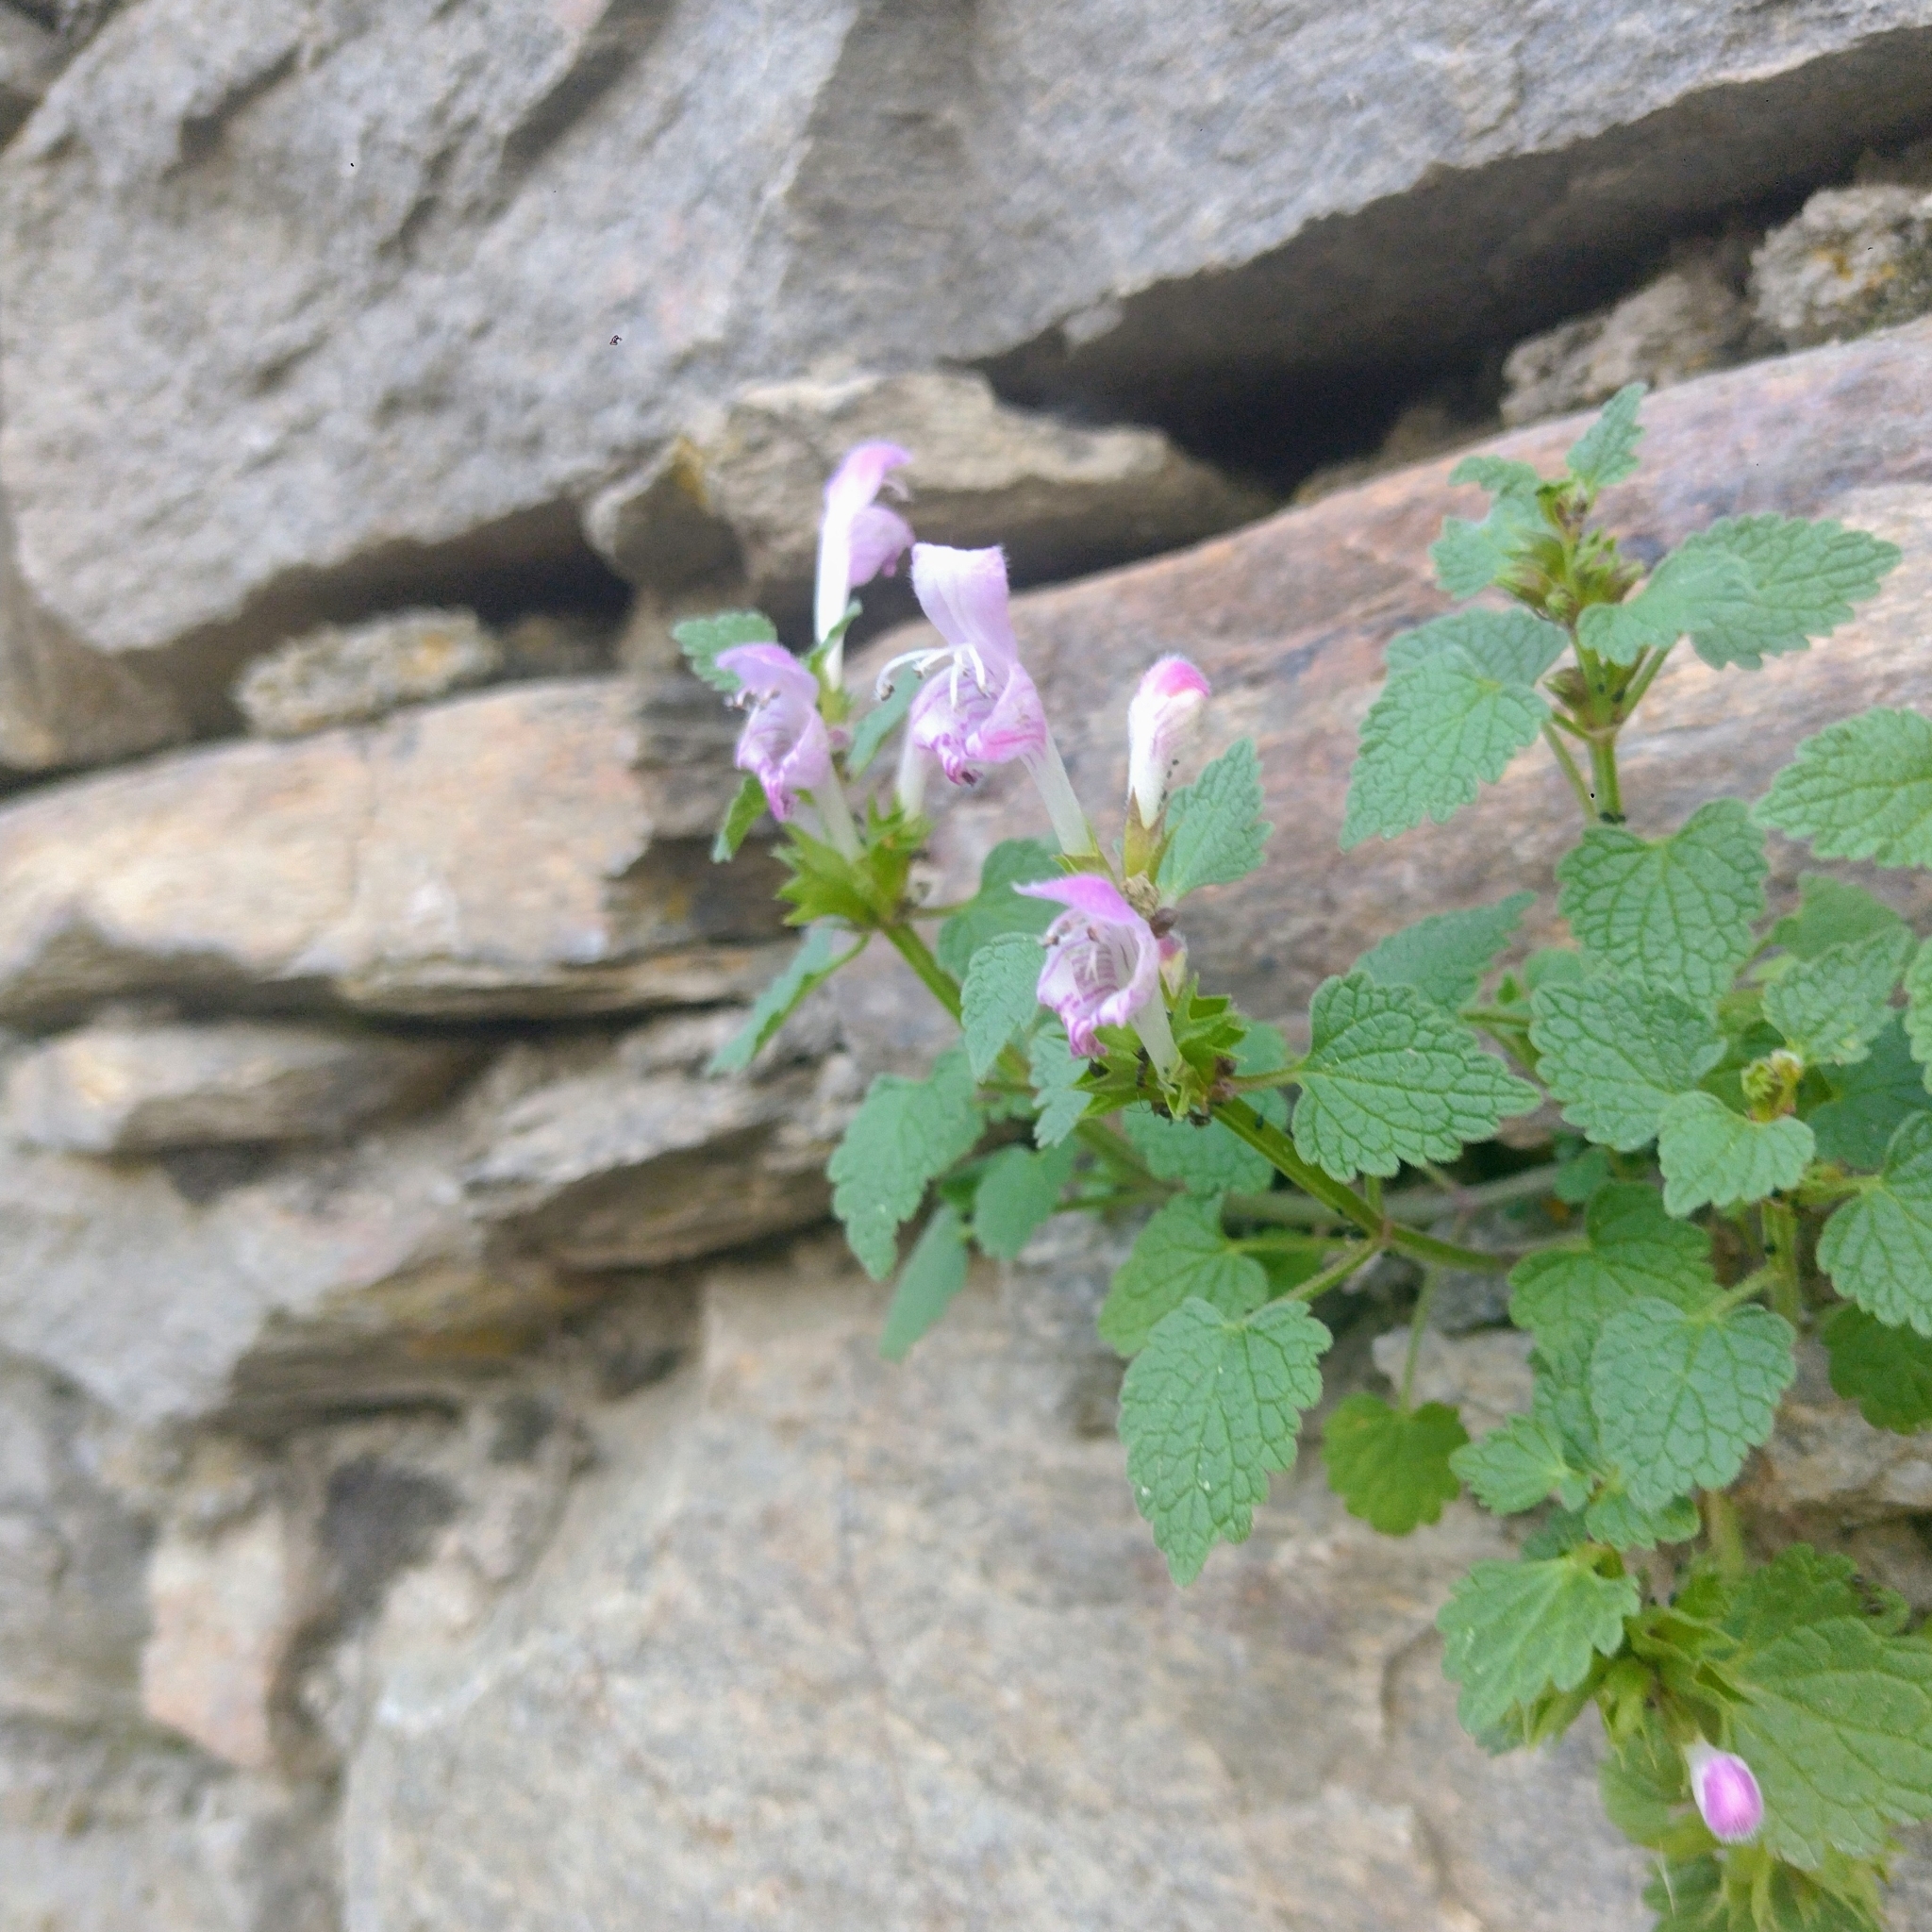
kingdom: Plantae
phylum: Tracheophyta
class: Magnoliopsida
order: Lamiales
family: Lamiaceae
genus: Lamium
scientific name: Lamium garganicum
